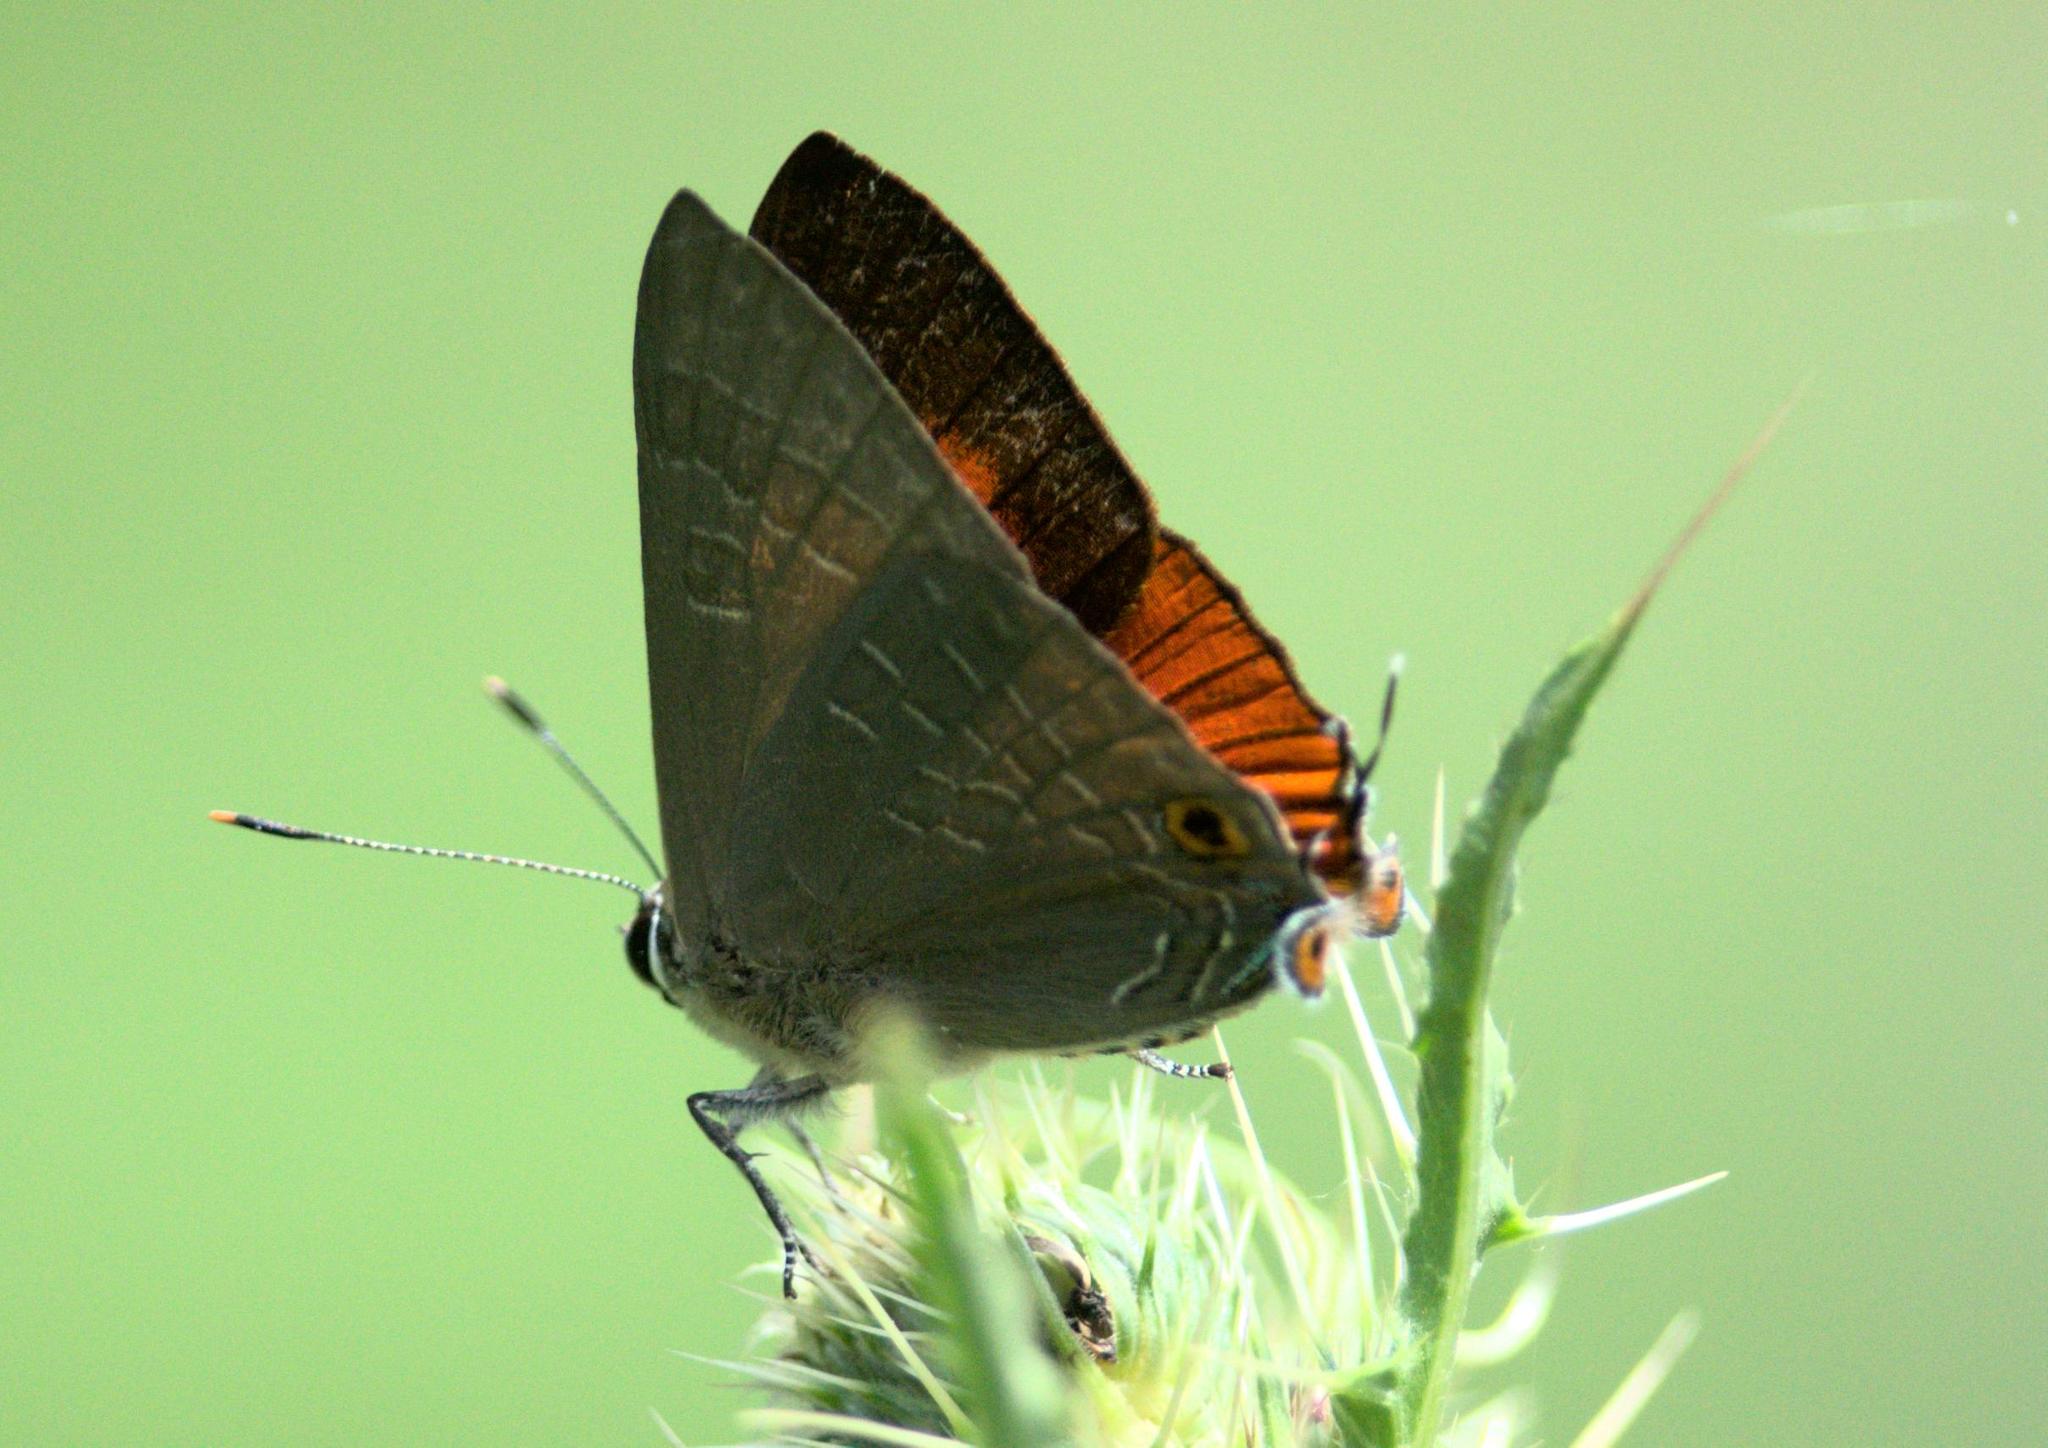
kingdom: Animalia
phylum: Arthropoda
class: Insecta
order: Lepidoptera
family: Lycaenidae
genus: Deudorix
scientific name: Deudorix epijarbas
